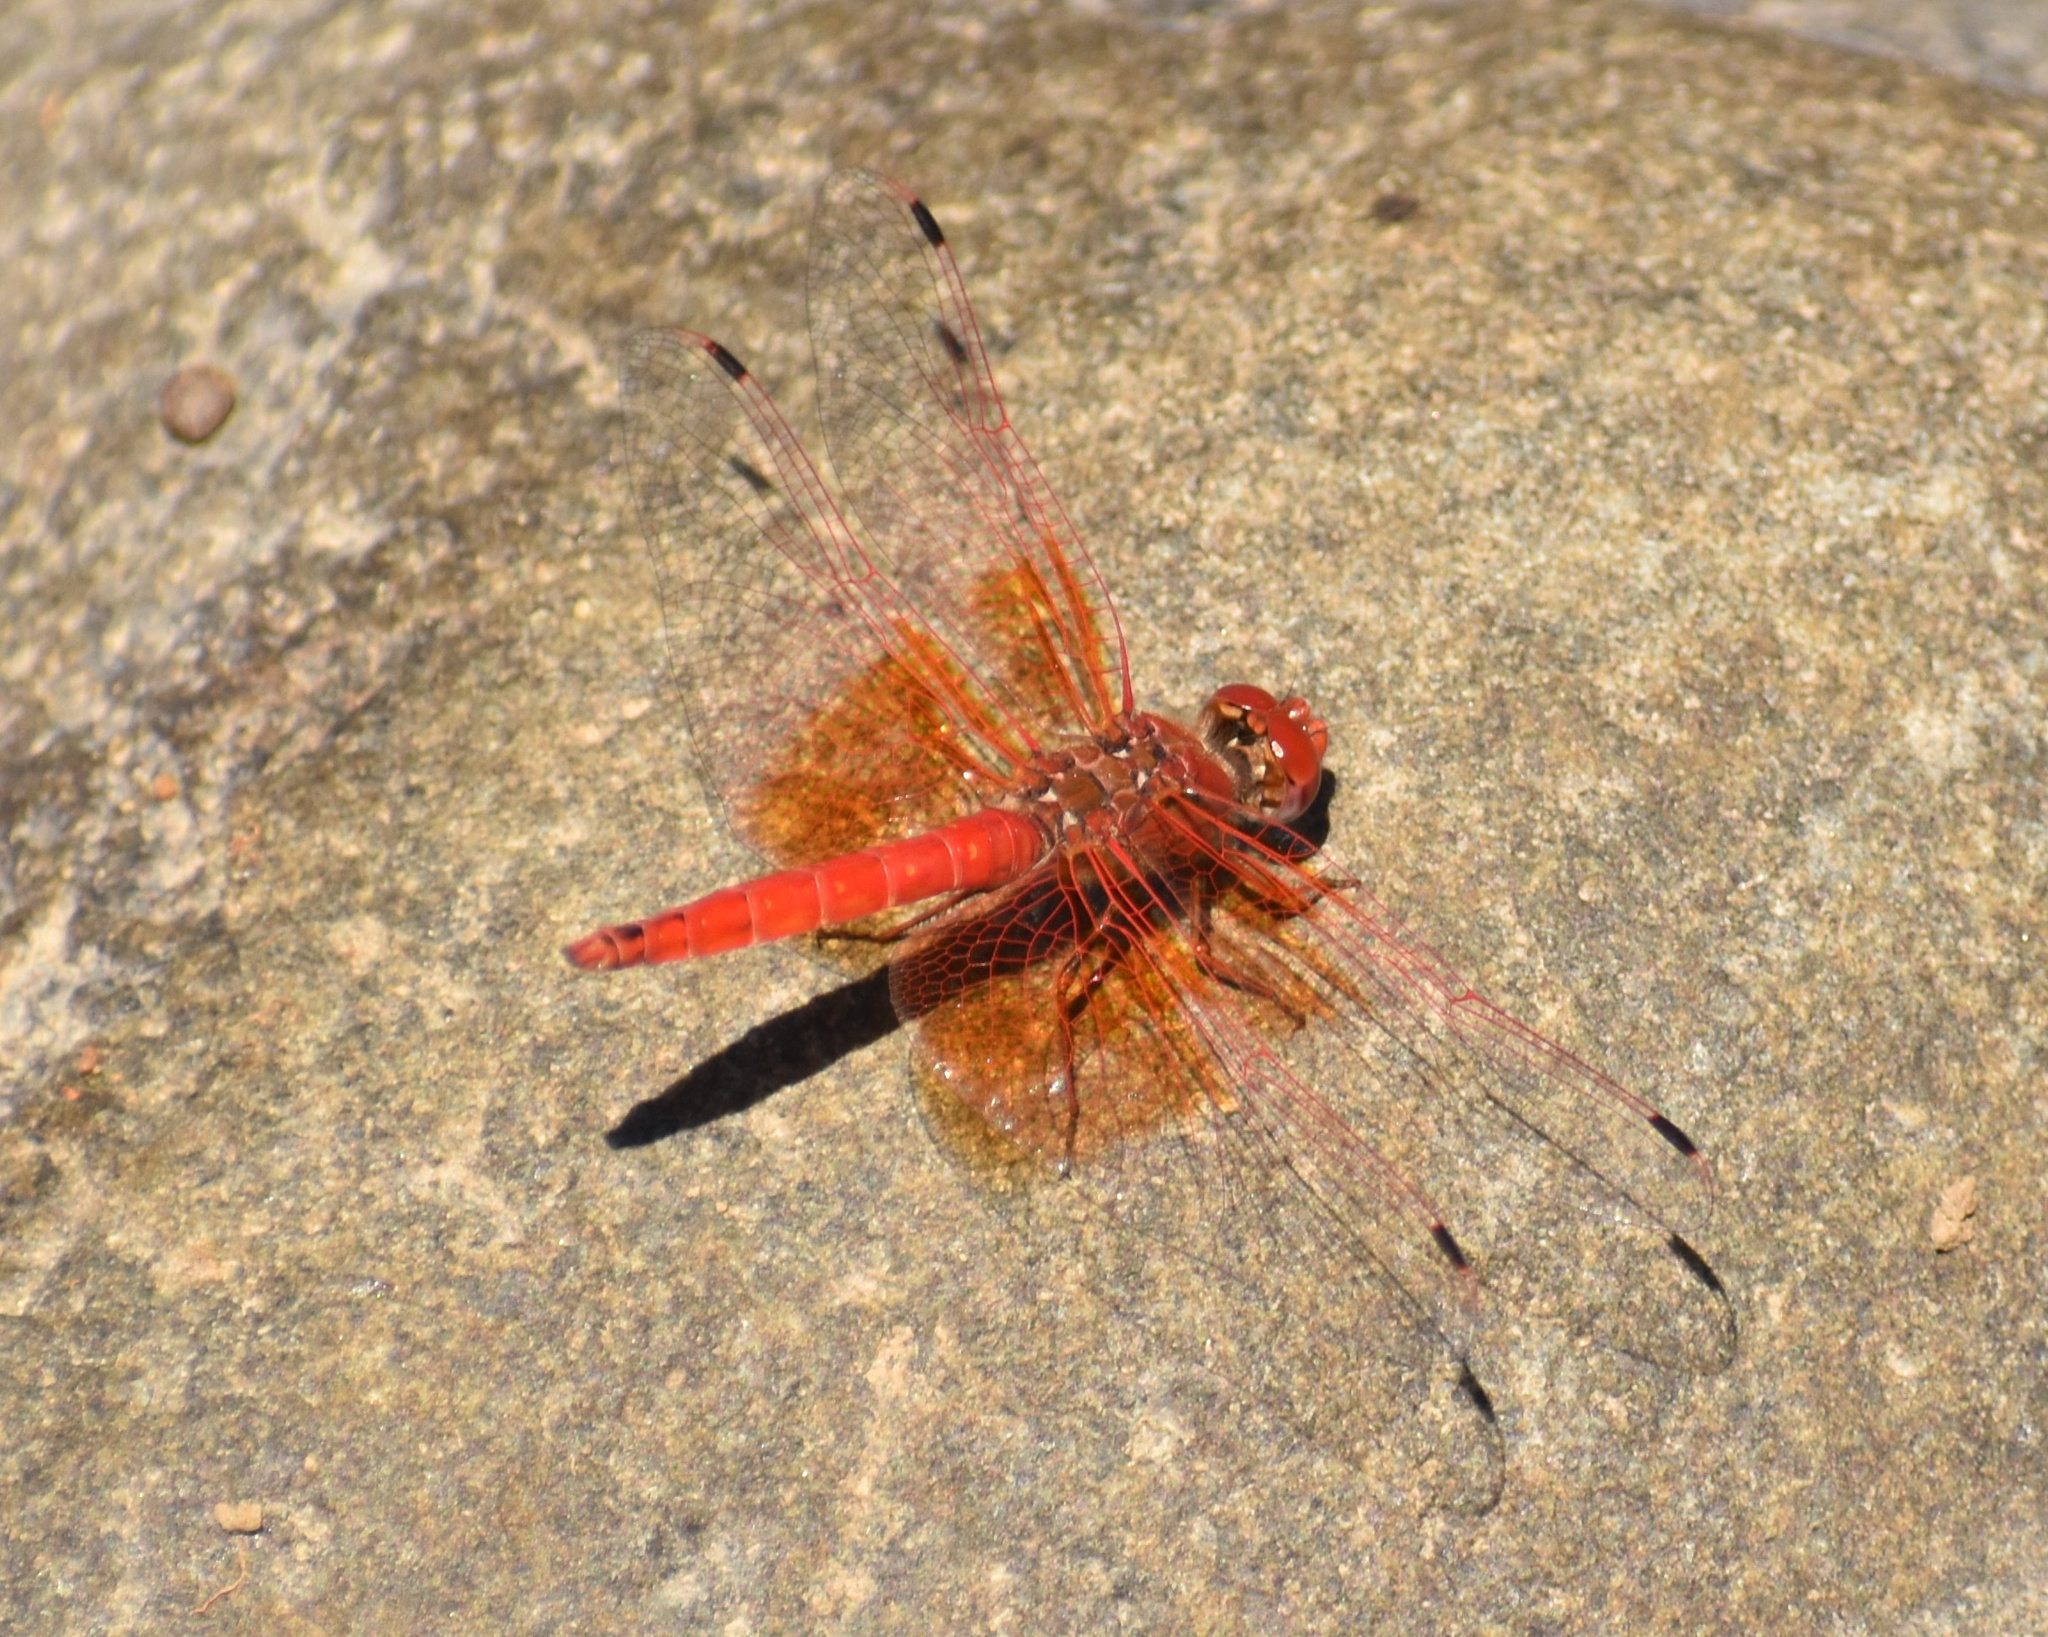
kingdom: Animalia
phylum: Arthropoda
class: Insecta
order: Odonata
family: Libellulidae
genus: Trithemis
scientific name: Trithemis kirbyi
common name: Kirby's dropwing
